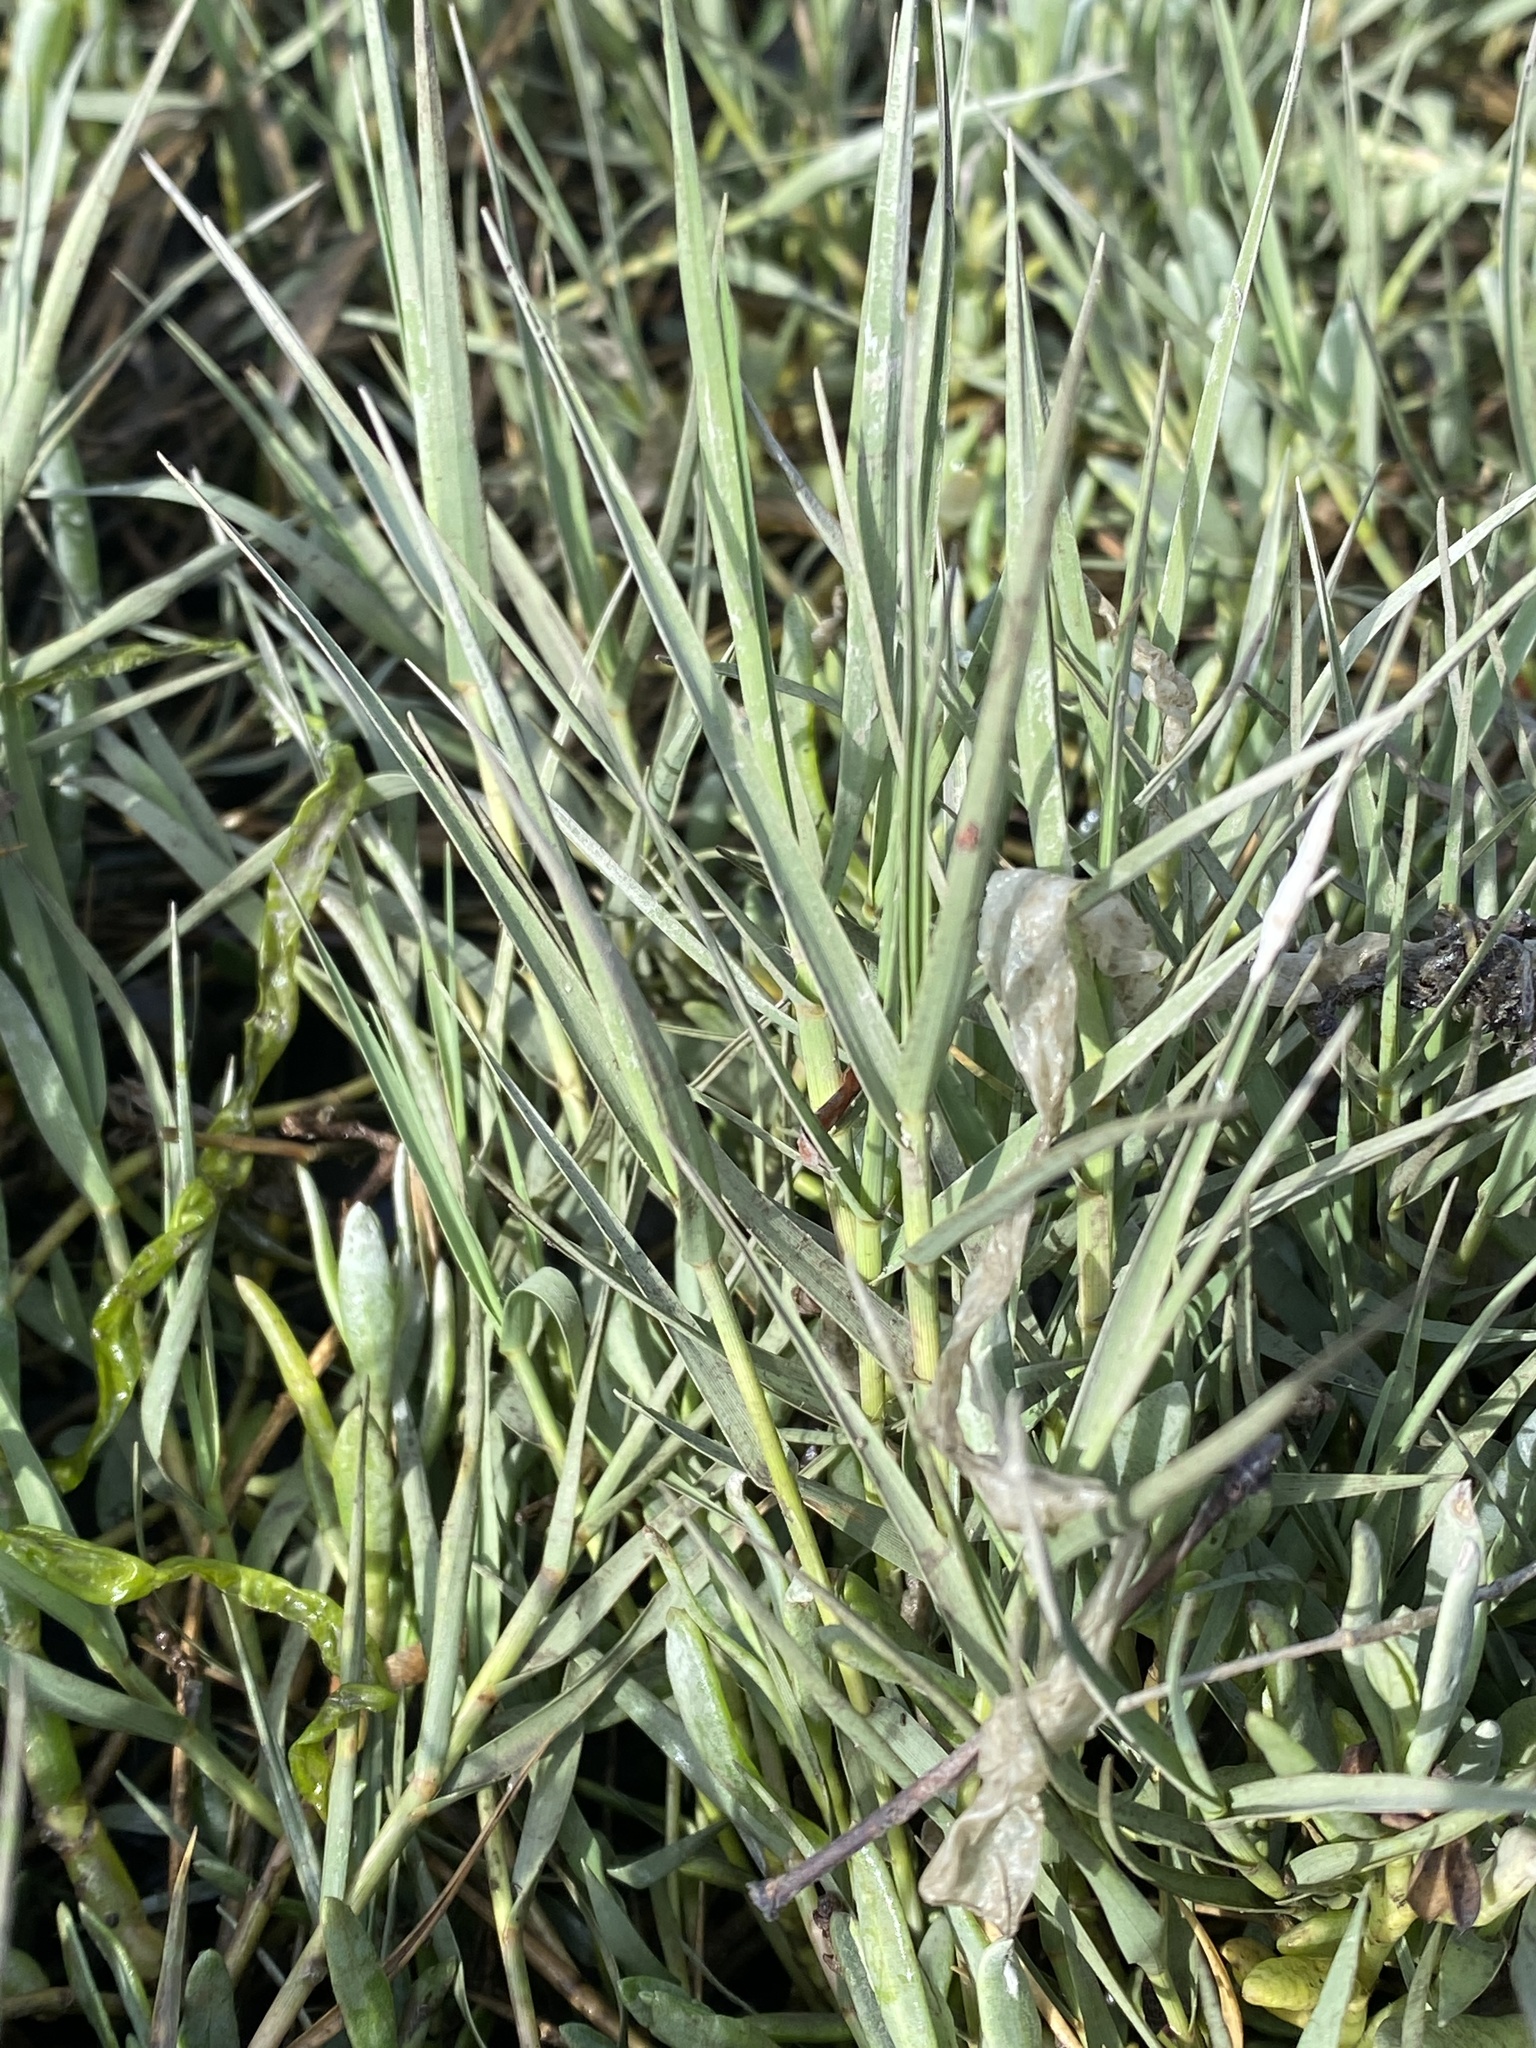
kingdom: Plantae
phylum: Tracheophyta
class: Liliopsida
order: Poales
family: Poaceae
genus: Distichlis
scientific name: Distichlis spicata
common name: Saltgrass
